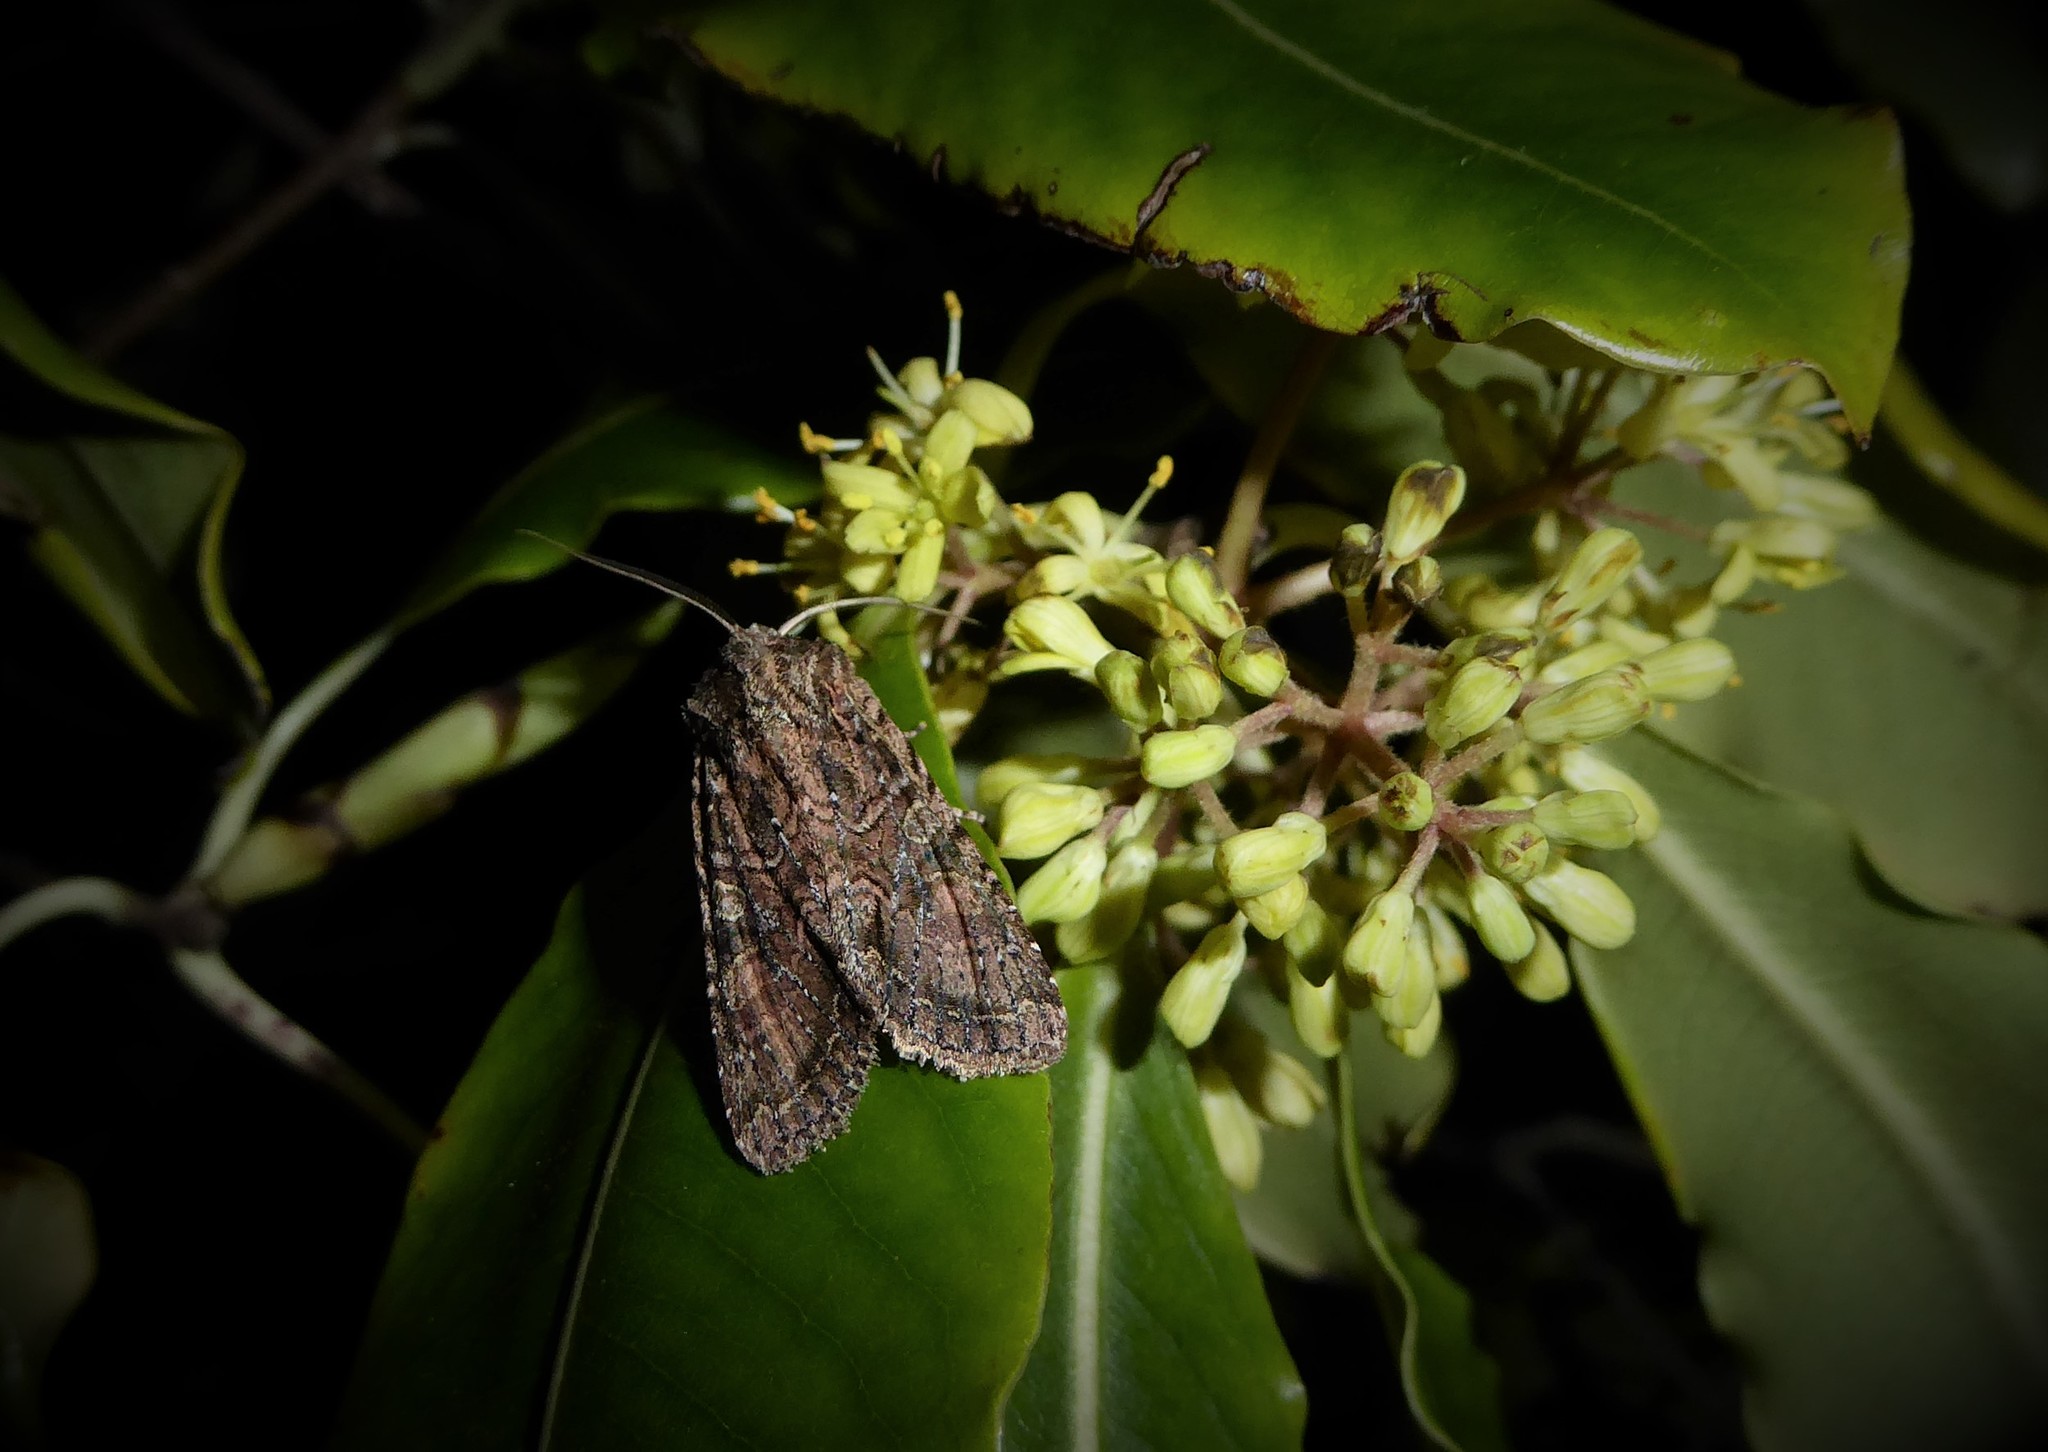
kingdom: Animalia
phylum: Arthropoda
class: Insecta
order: Lepidoptera
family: Noctuidae
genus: Ichneutica
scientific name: Ichneutica mutans
